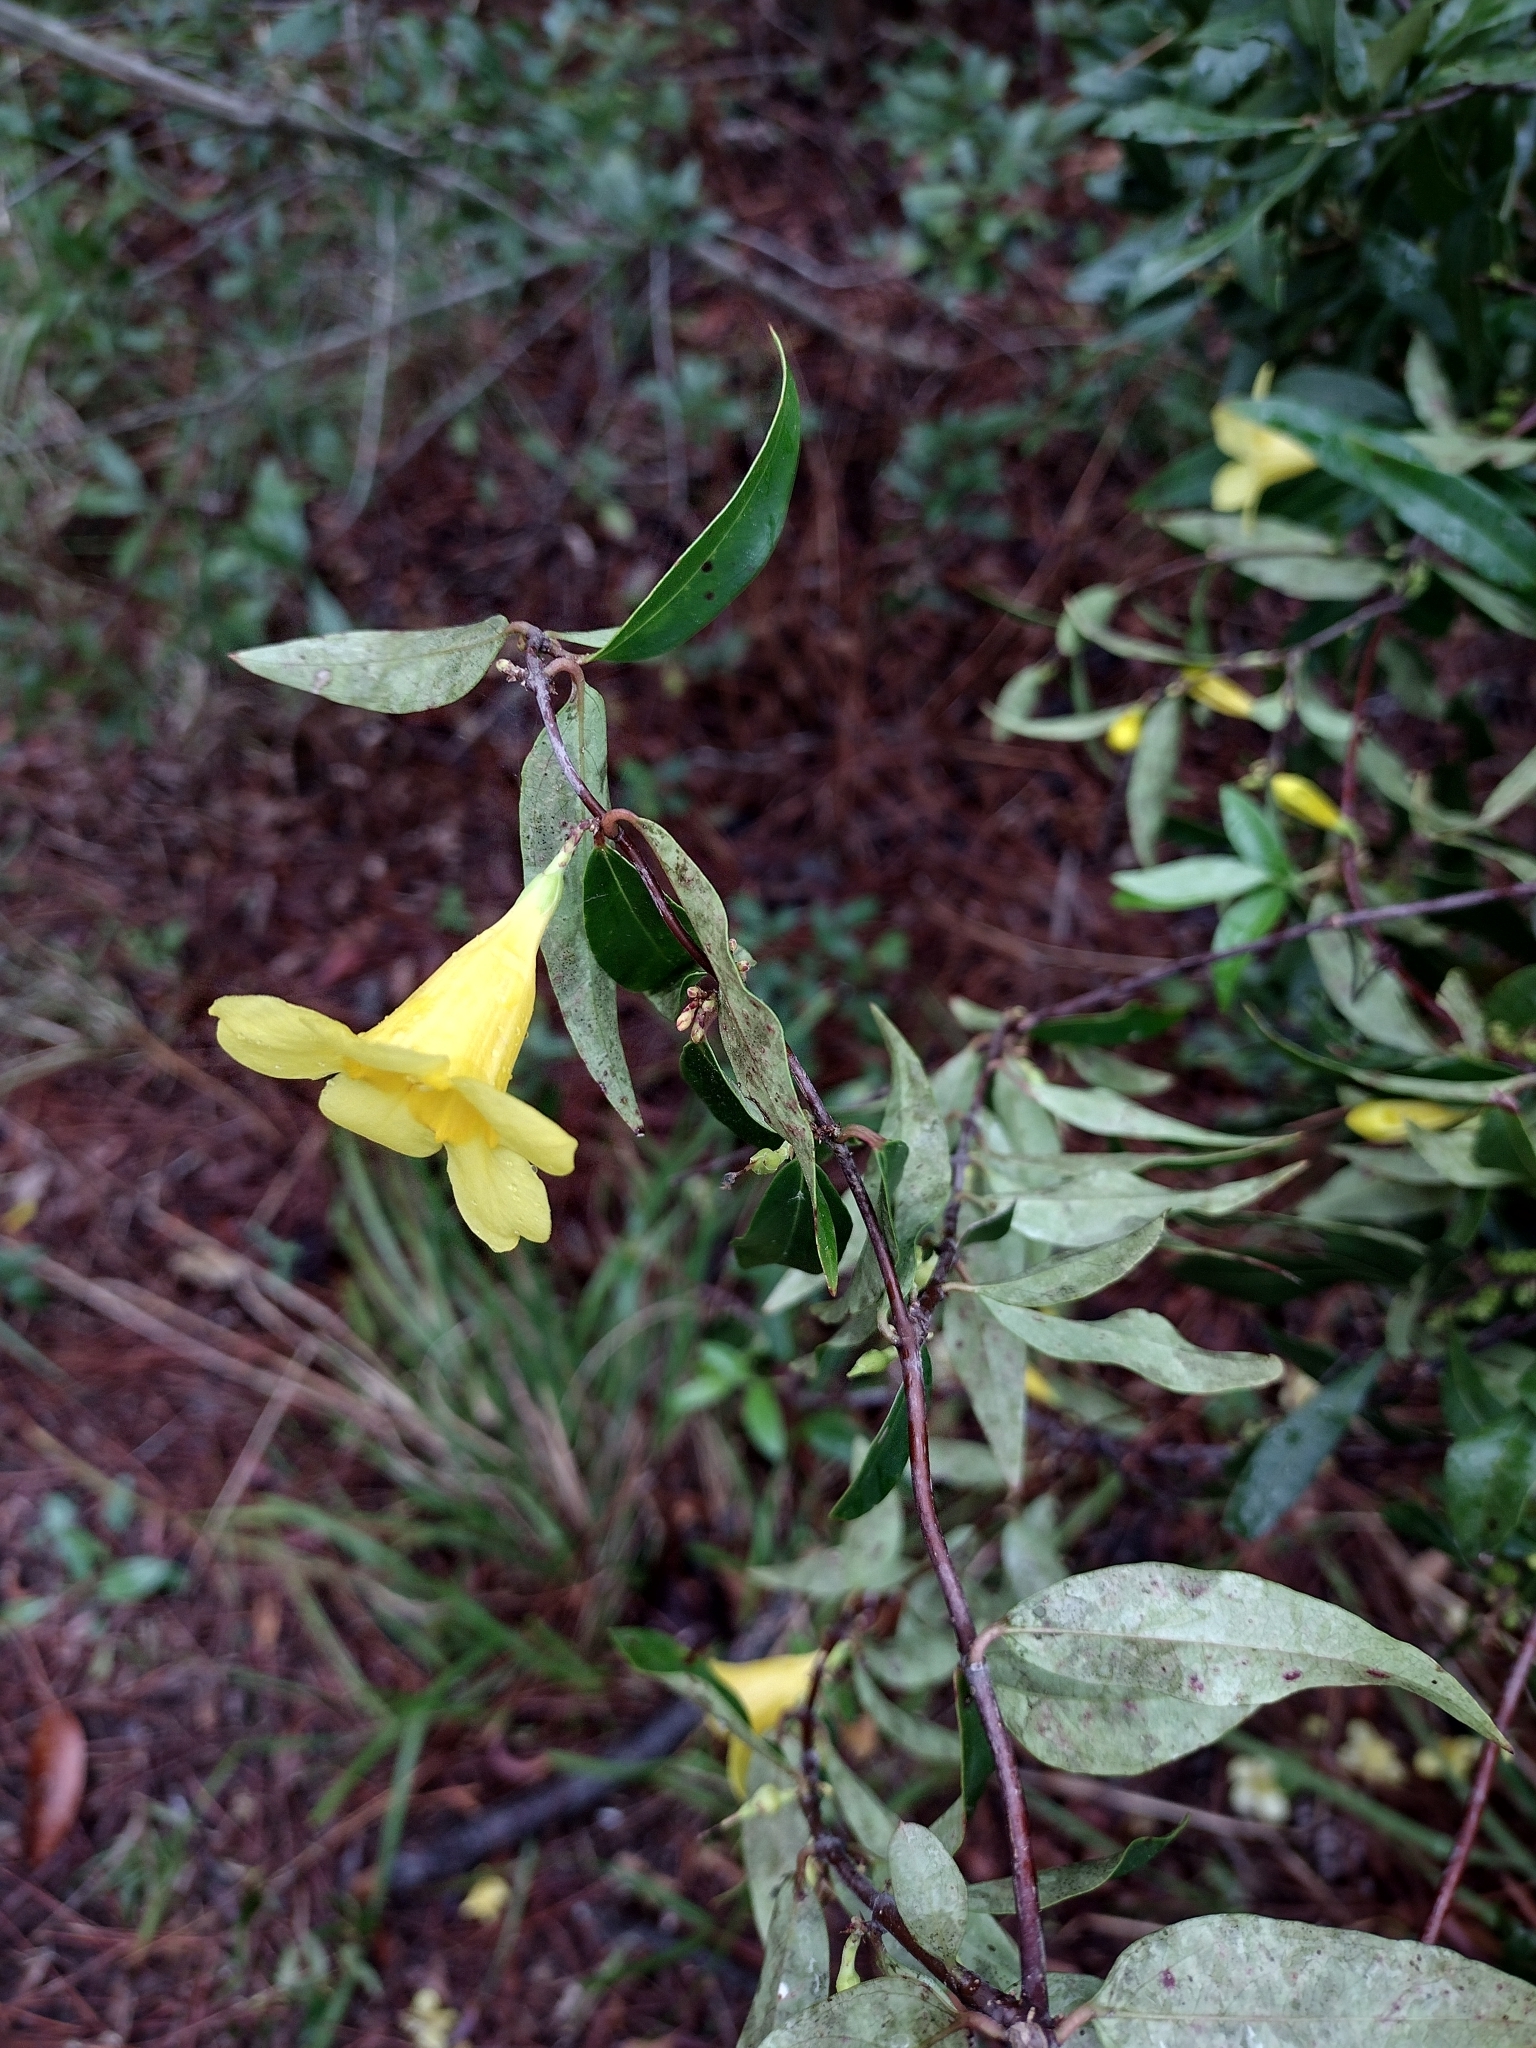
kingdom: Plantae
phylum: Tracheophyta
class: Magnoliopsida
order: Gentianales
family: Gelsemiaceae
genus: Gelsemium
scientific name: Gelsemium sempervirens
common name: Carolina-jasmine
